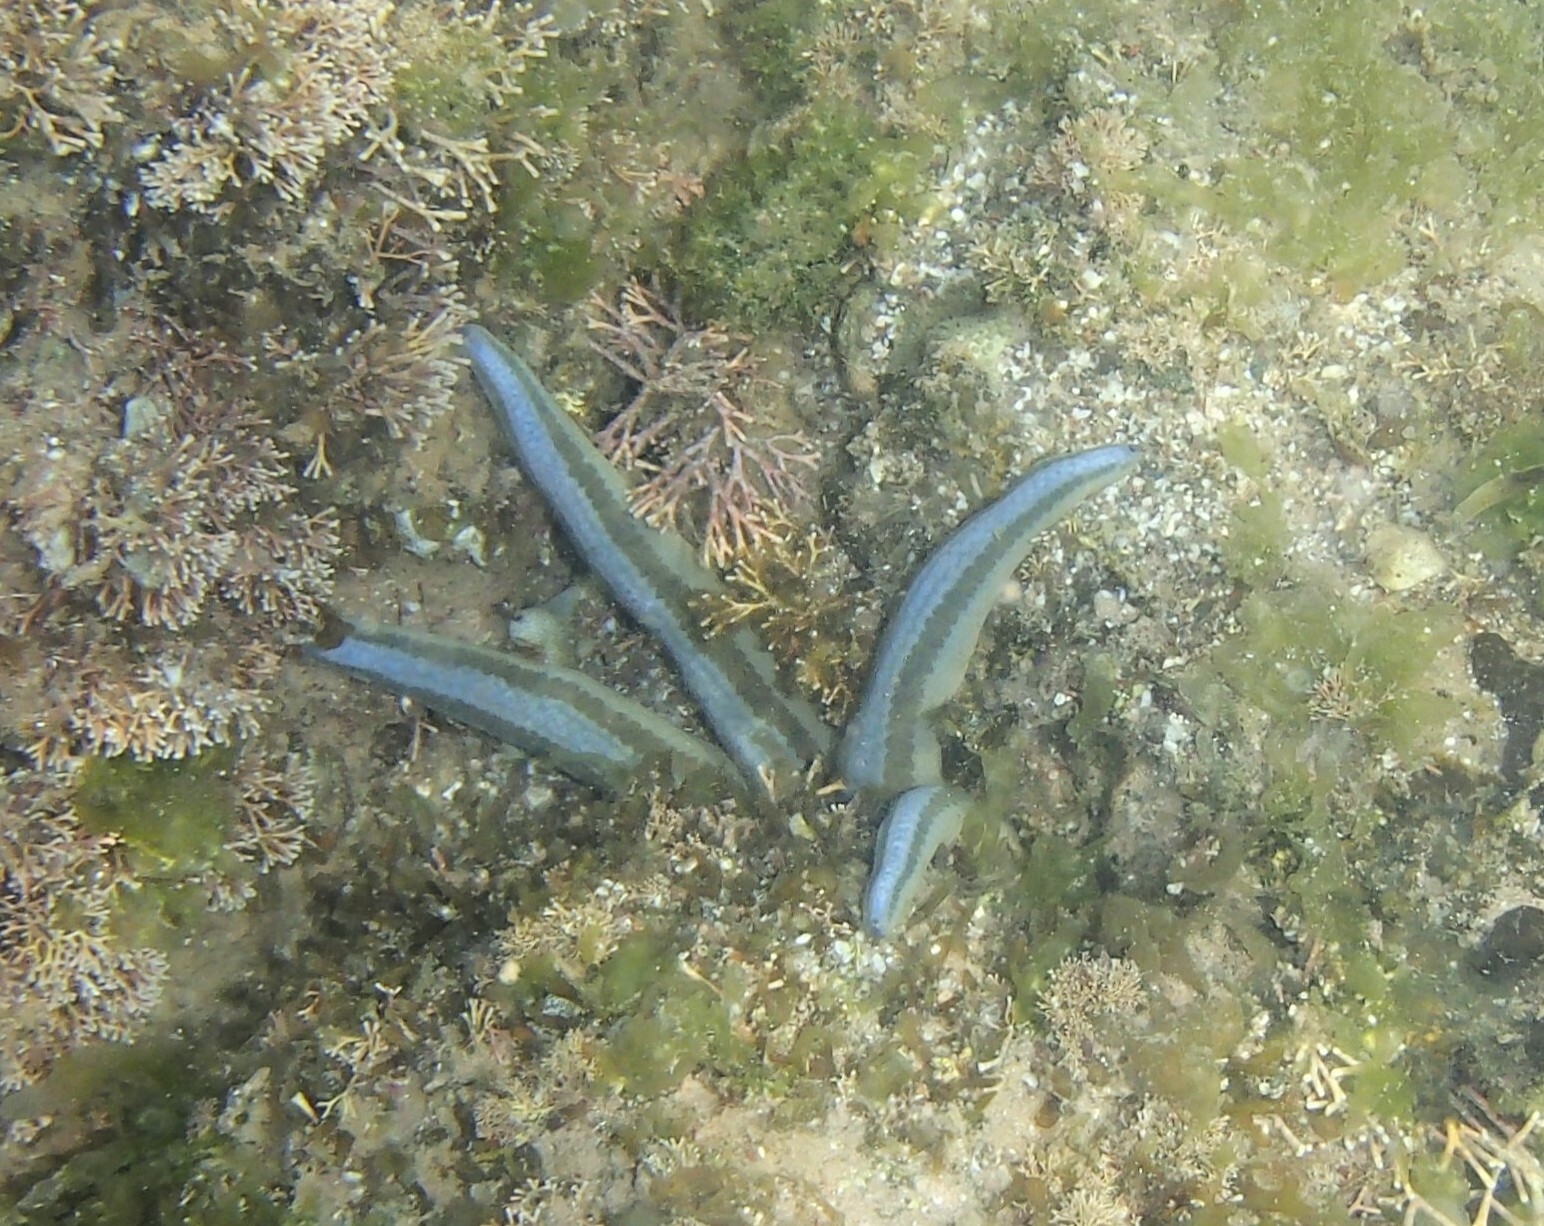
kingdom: Animalia
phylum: Echinodermata
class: Asteroidea
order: Valvatida
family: Ophidiasteridae
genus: Phataria
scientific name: Phataria unifascialis
